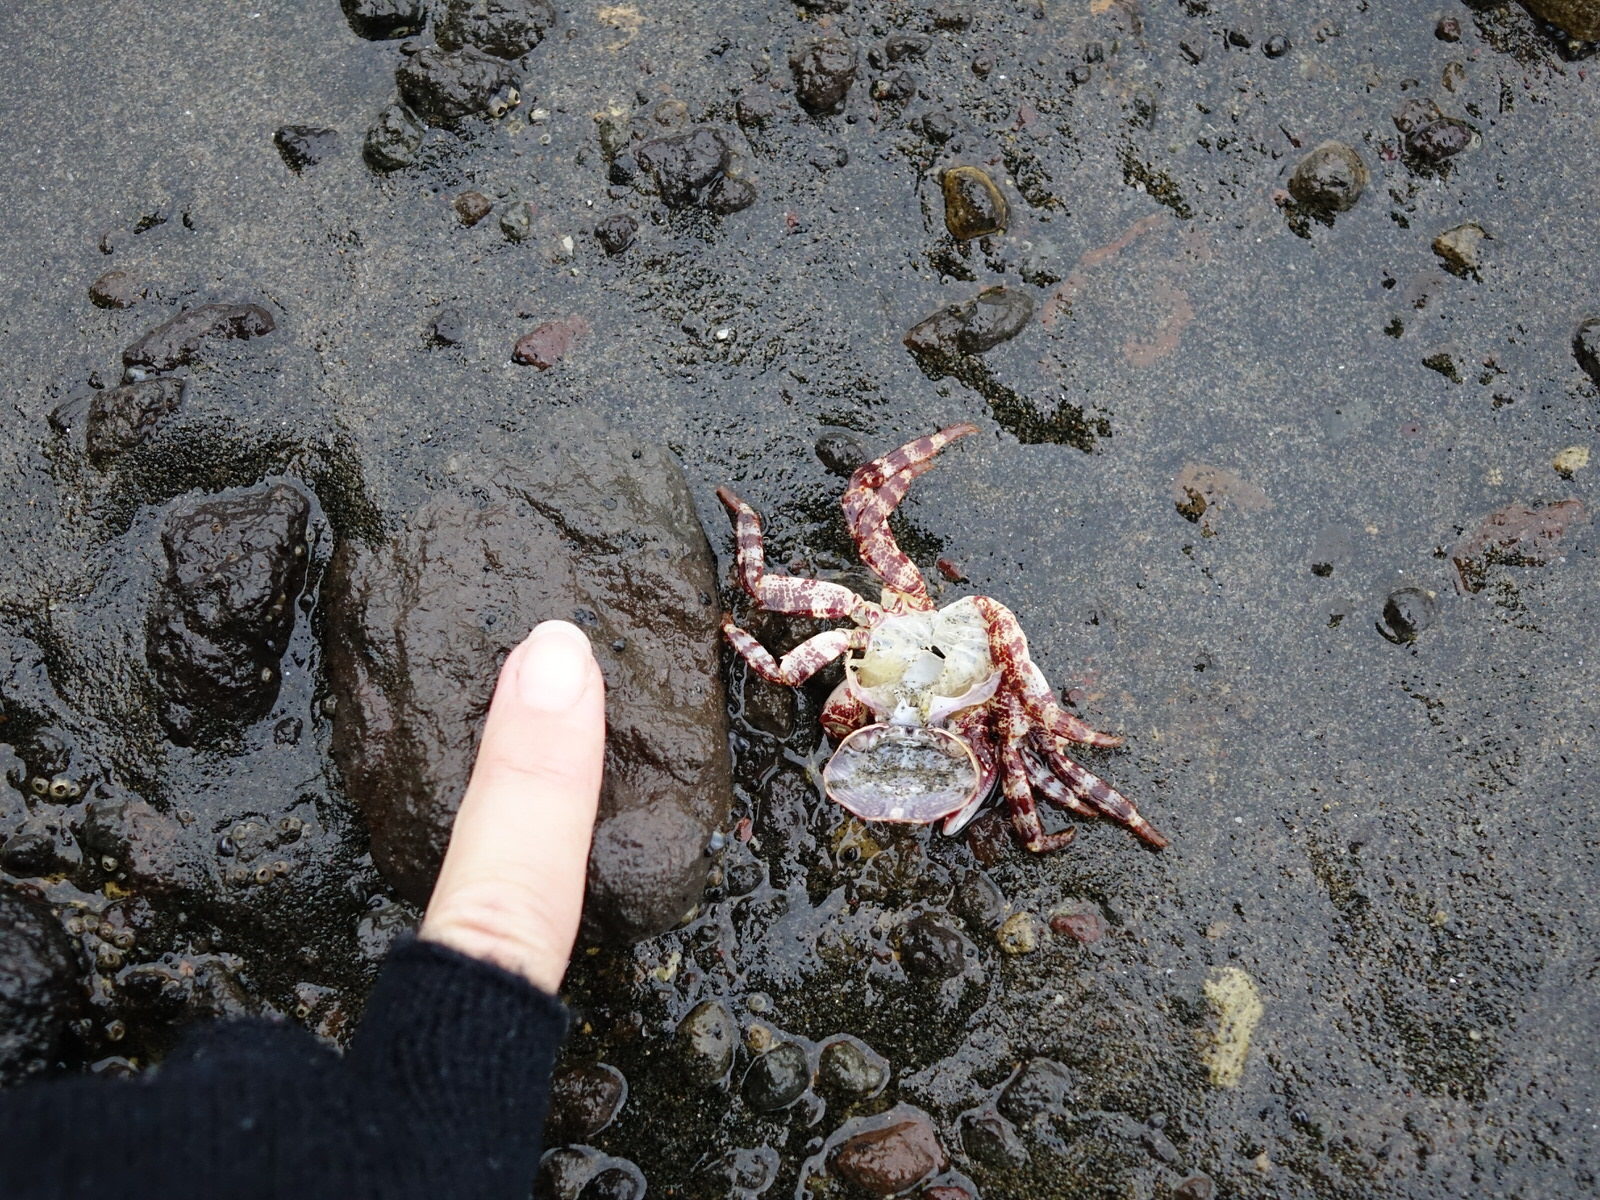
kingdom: Animalia
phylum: Arthropoda
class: Malacostraca
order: Decapoda
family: Grapsidae
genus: Leptograpsus
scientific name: Leptograpsus variegatus
